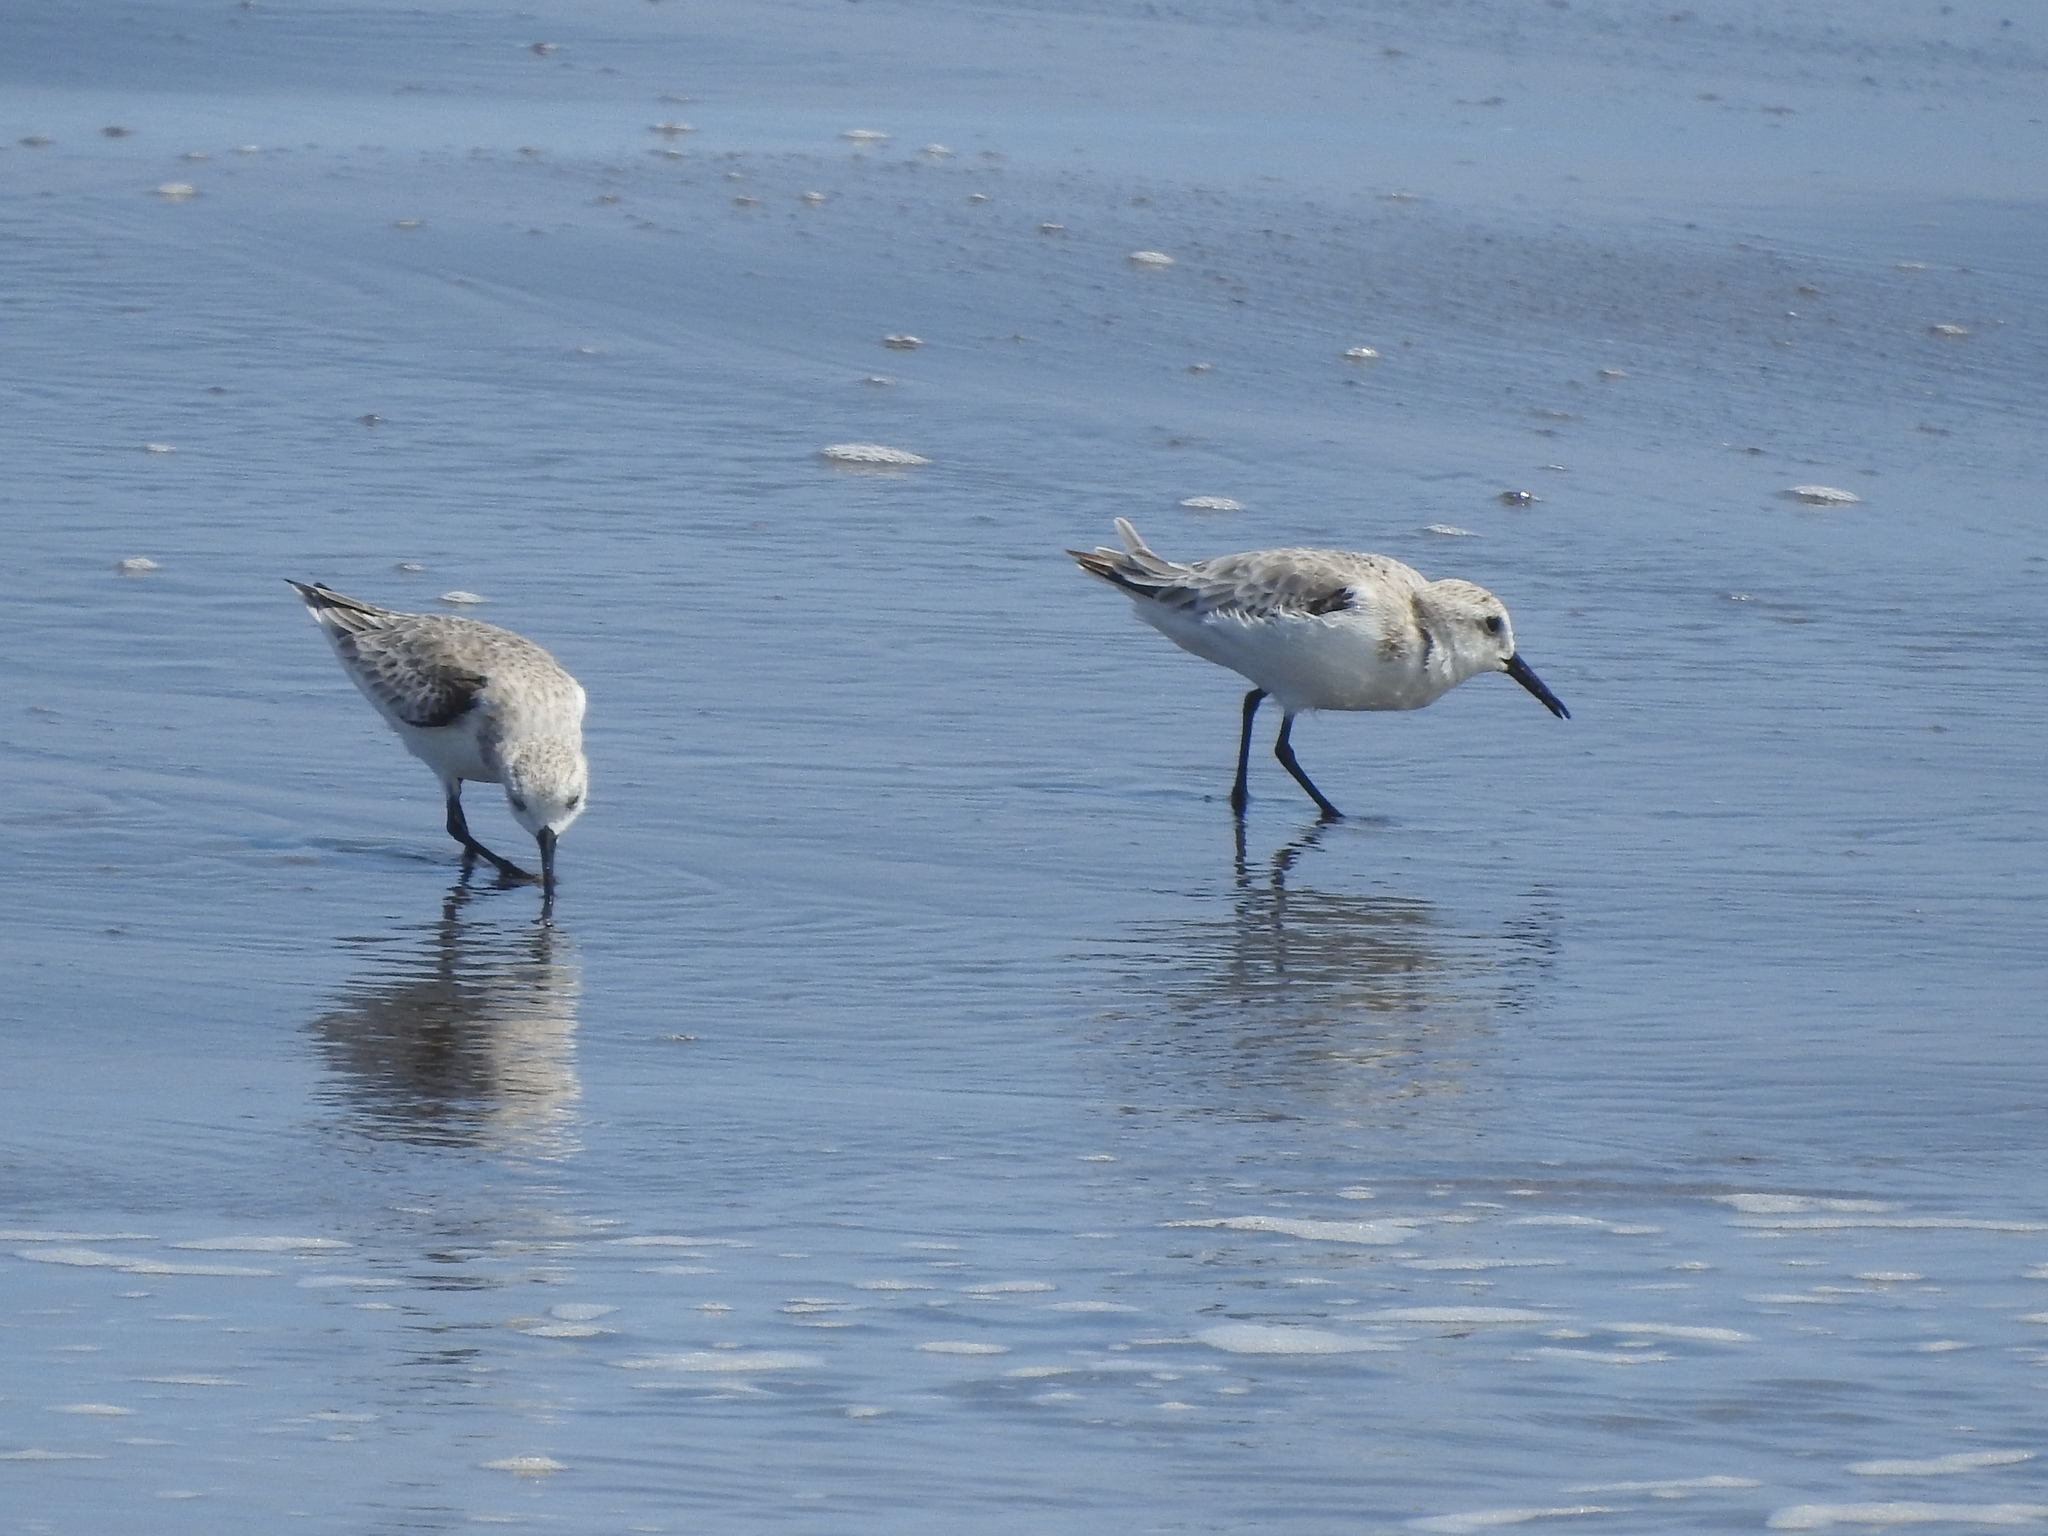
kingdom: Animalia
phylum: Chordata
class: Aves
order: Charadriiformes
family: Scolopacidae
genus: Calidris
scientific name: Calidris alba
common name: Sanderling
